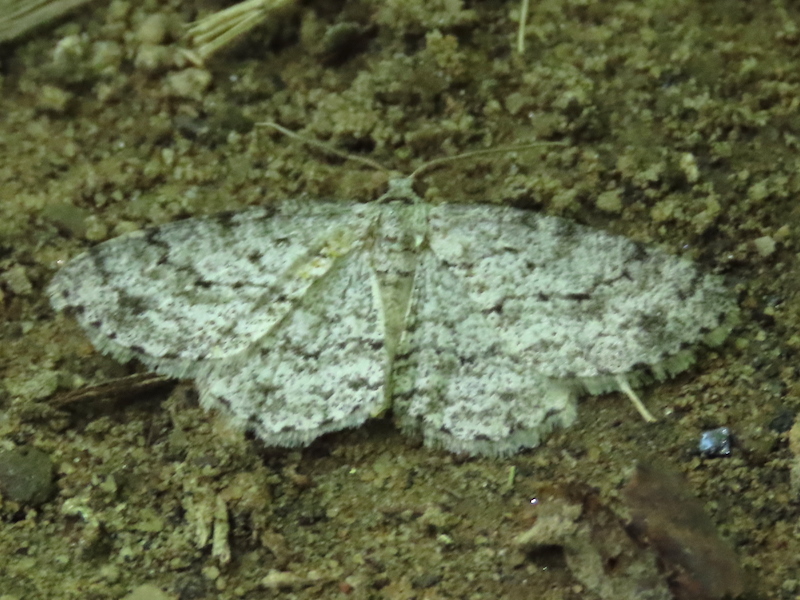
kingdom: Animalia
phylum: Arthropoda
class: Insecta
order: Lepidoptera
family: Geometridae
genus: Ectropis
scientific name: Ectropis crepuscularia
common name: Engrailed
